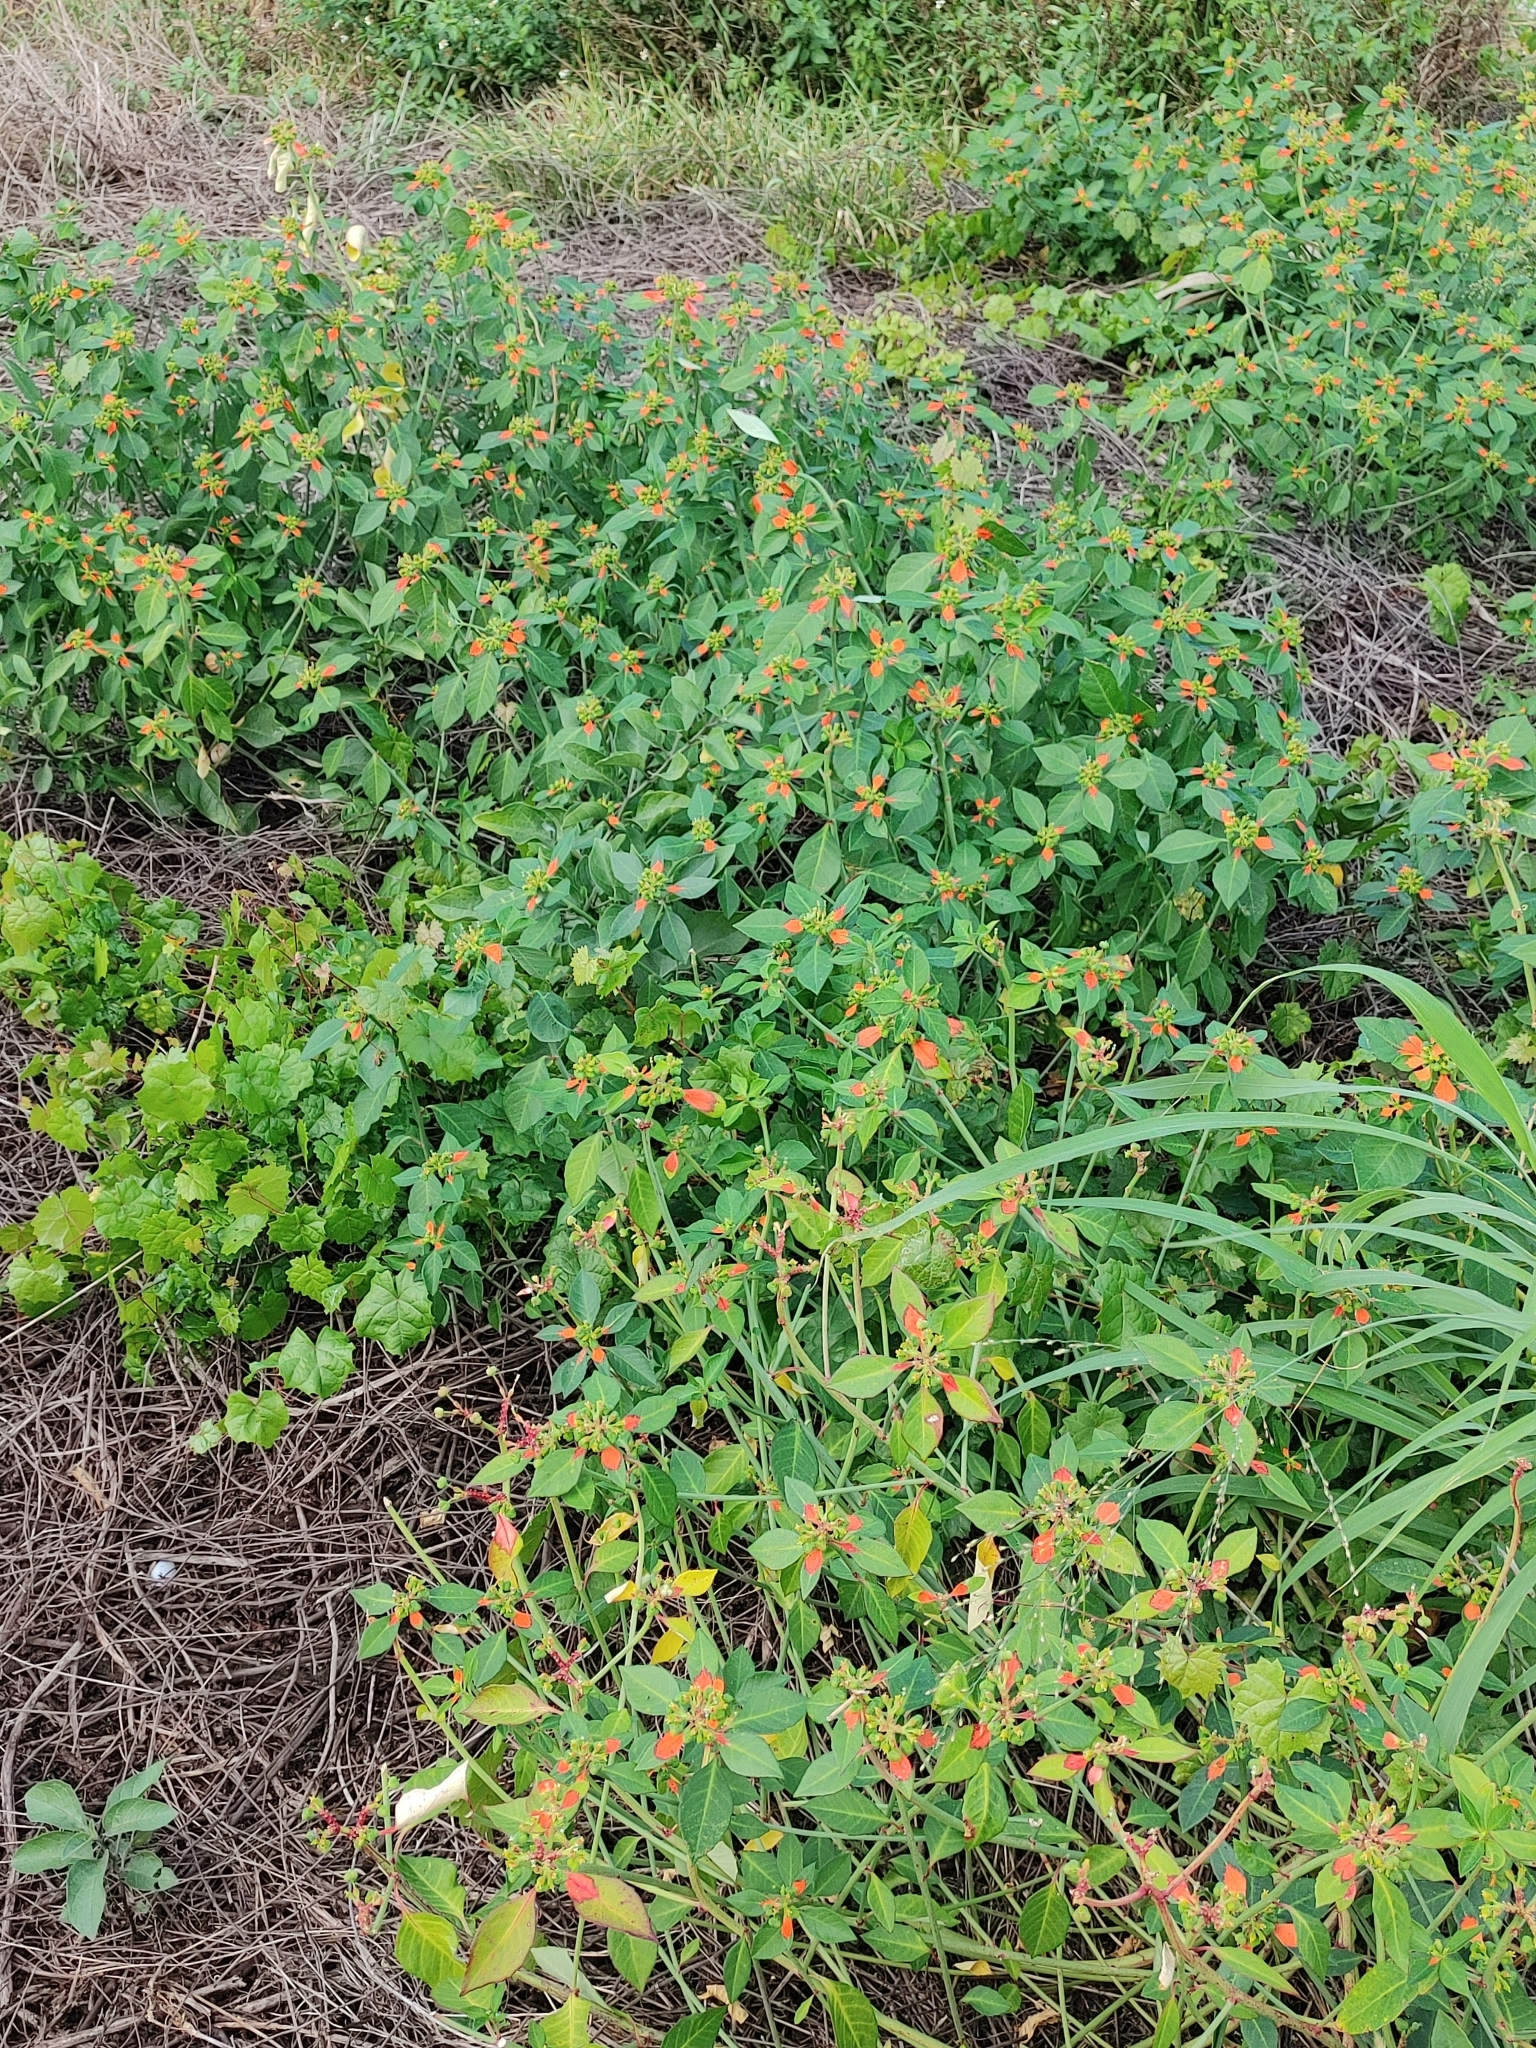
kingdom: Plantae
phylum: Tracheophyta
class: Magnoliopsida
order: Malpighiales
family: Euphorbiaceae
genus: Euphorbia
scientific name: Euphorbia heterophylla
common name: Mexican fireplant
